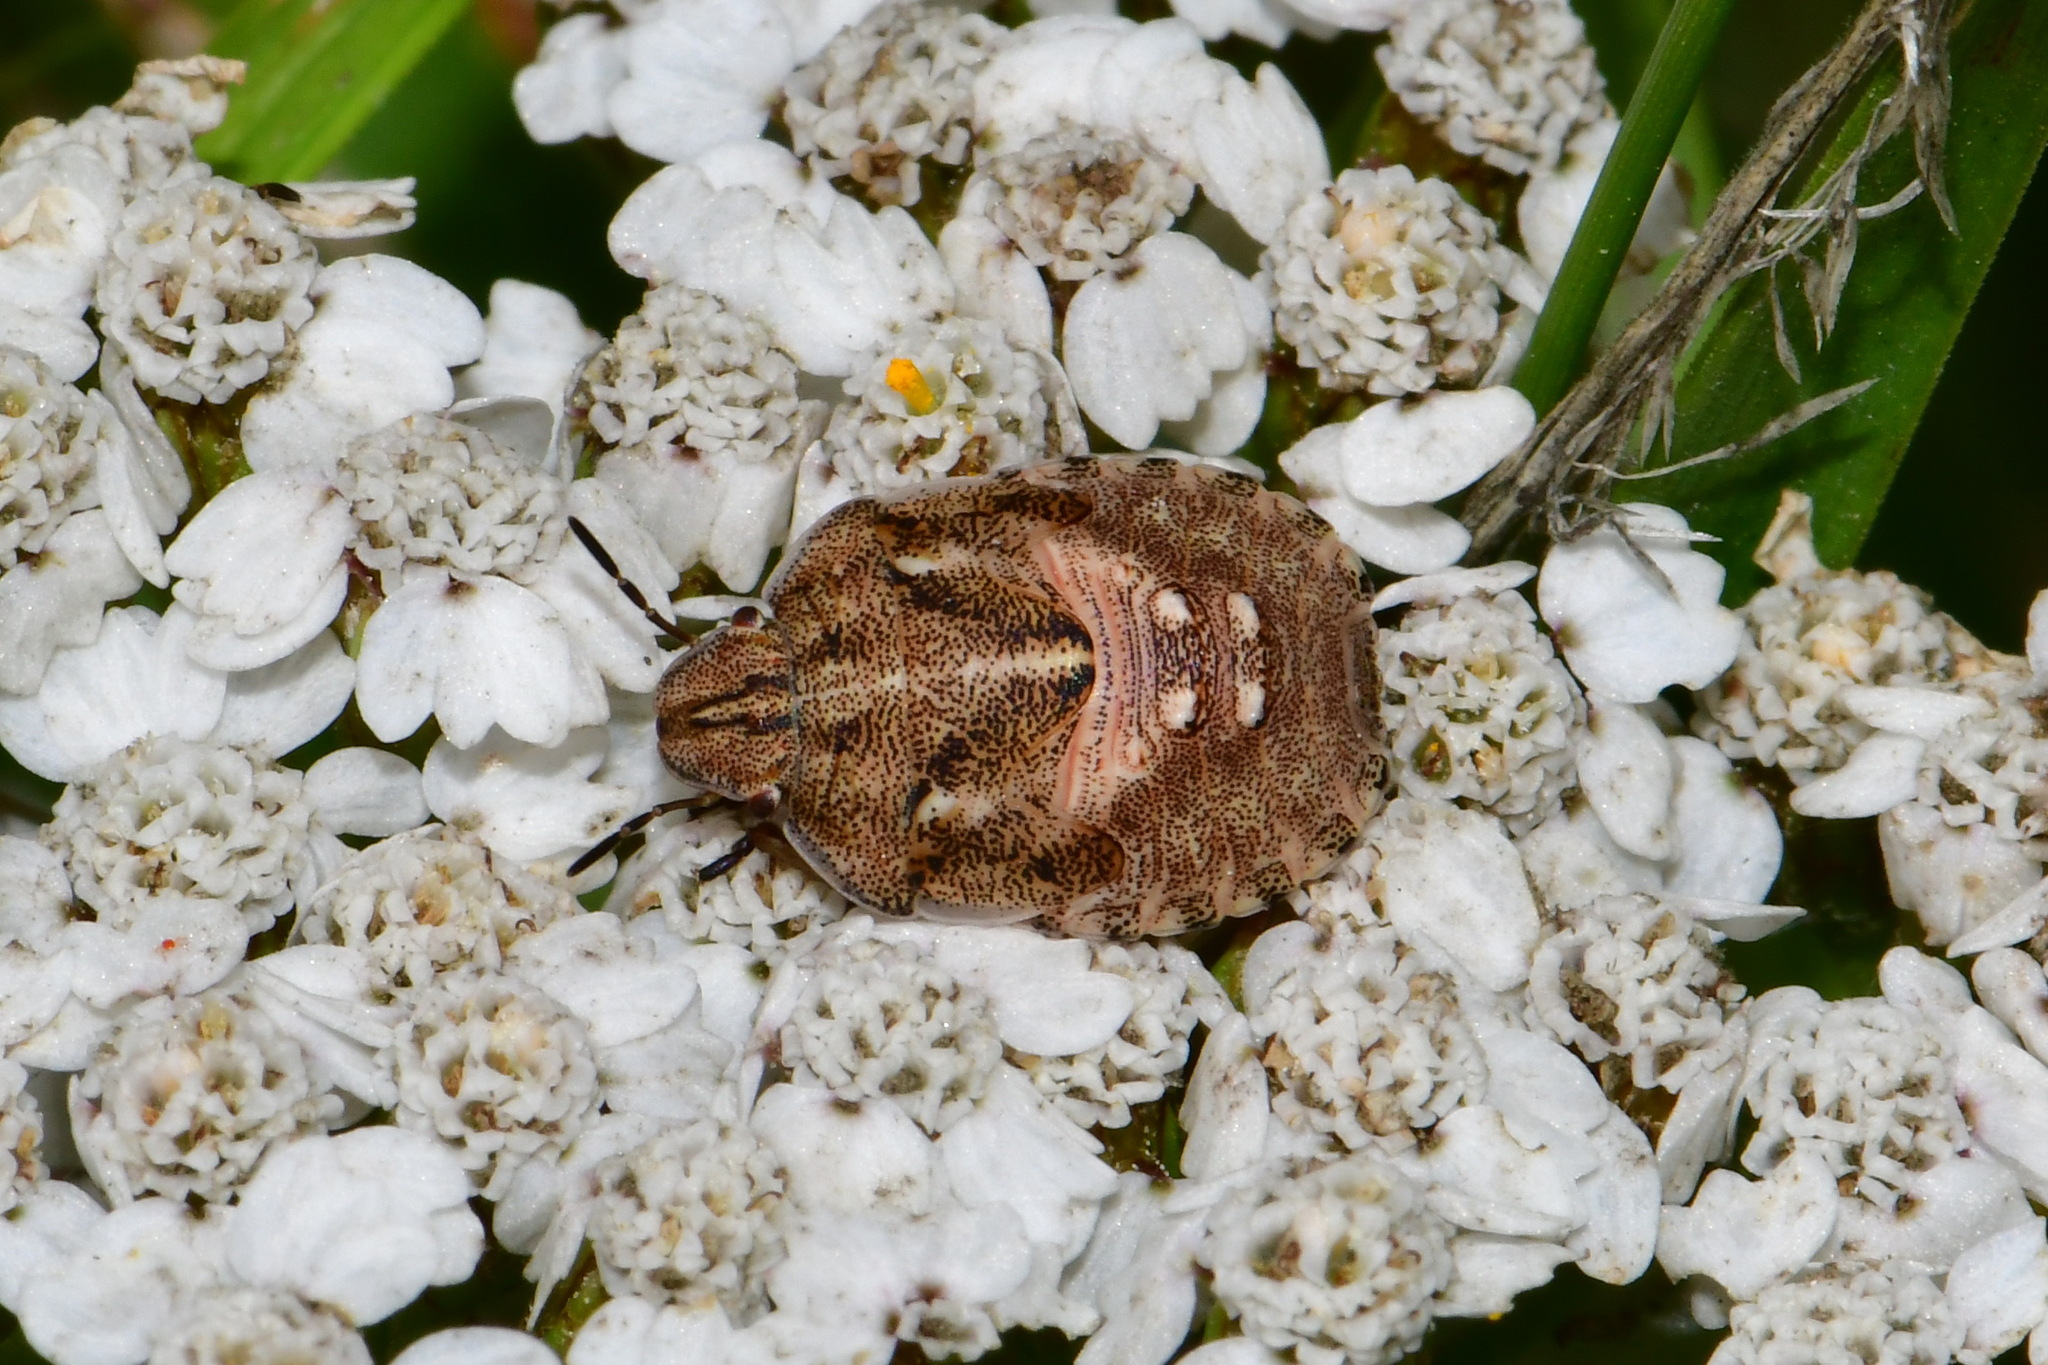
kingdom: Animalia
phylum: Arthropoda
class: Insecta
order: Hemiptera
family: Scutelleridae
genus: Eurygaster
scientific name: Eurygaster testudinaria
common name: Tortoise bug
